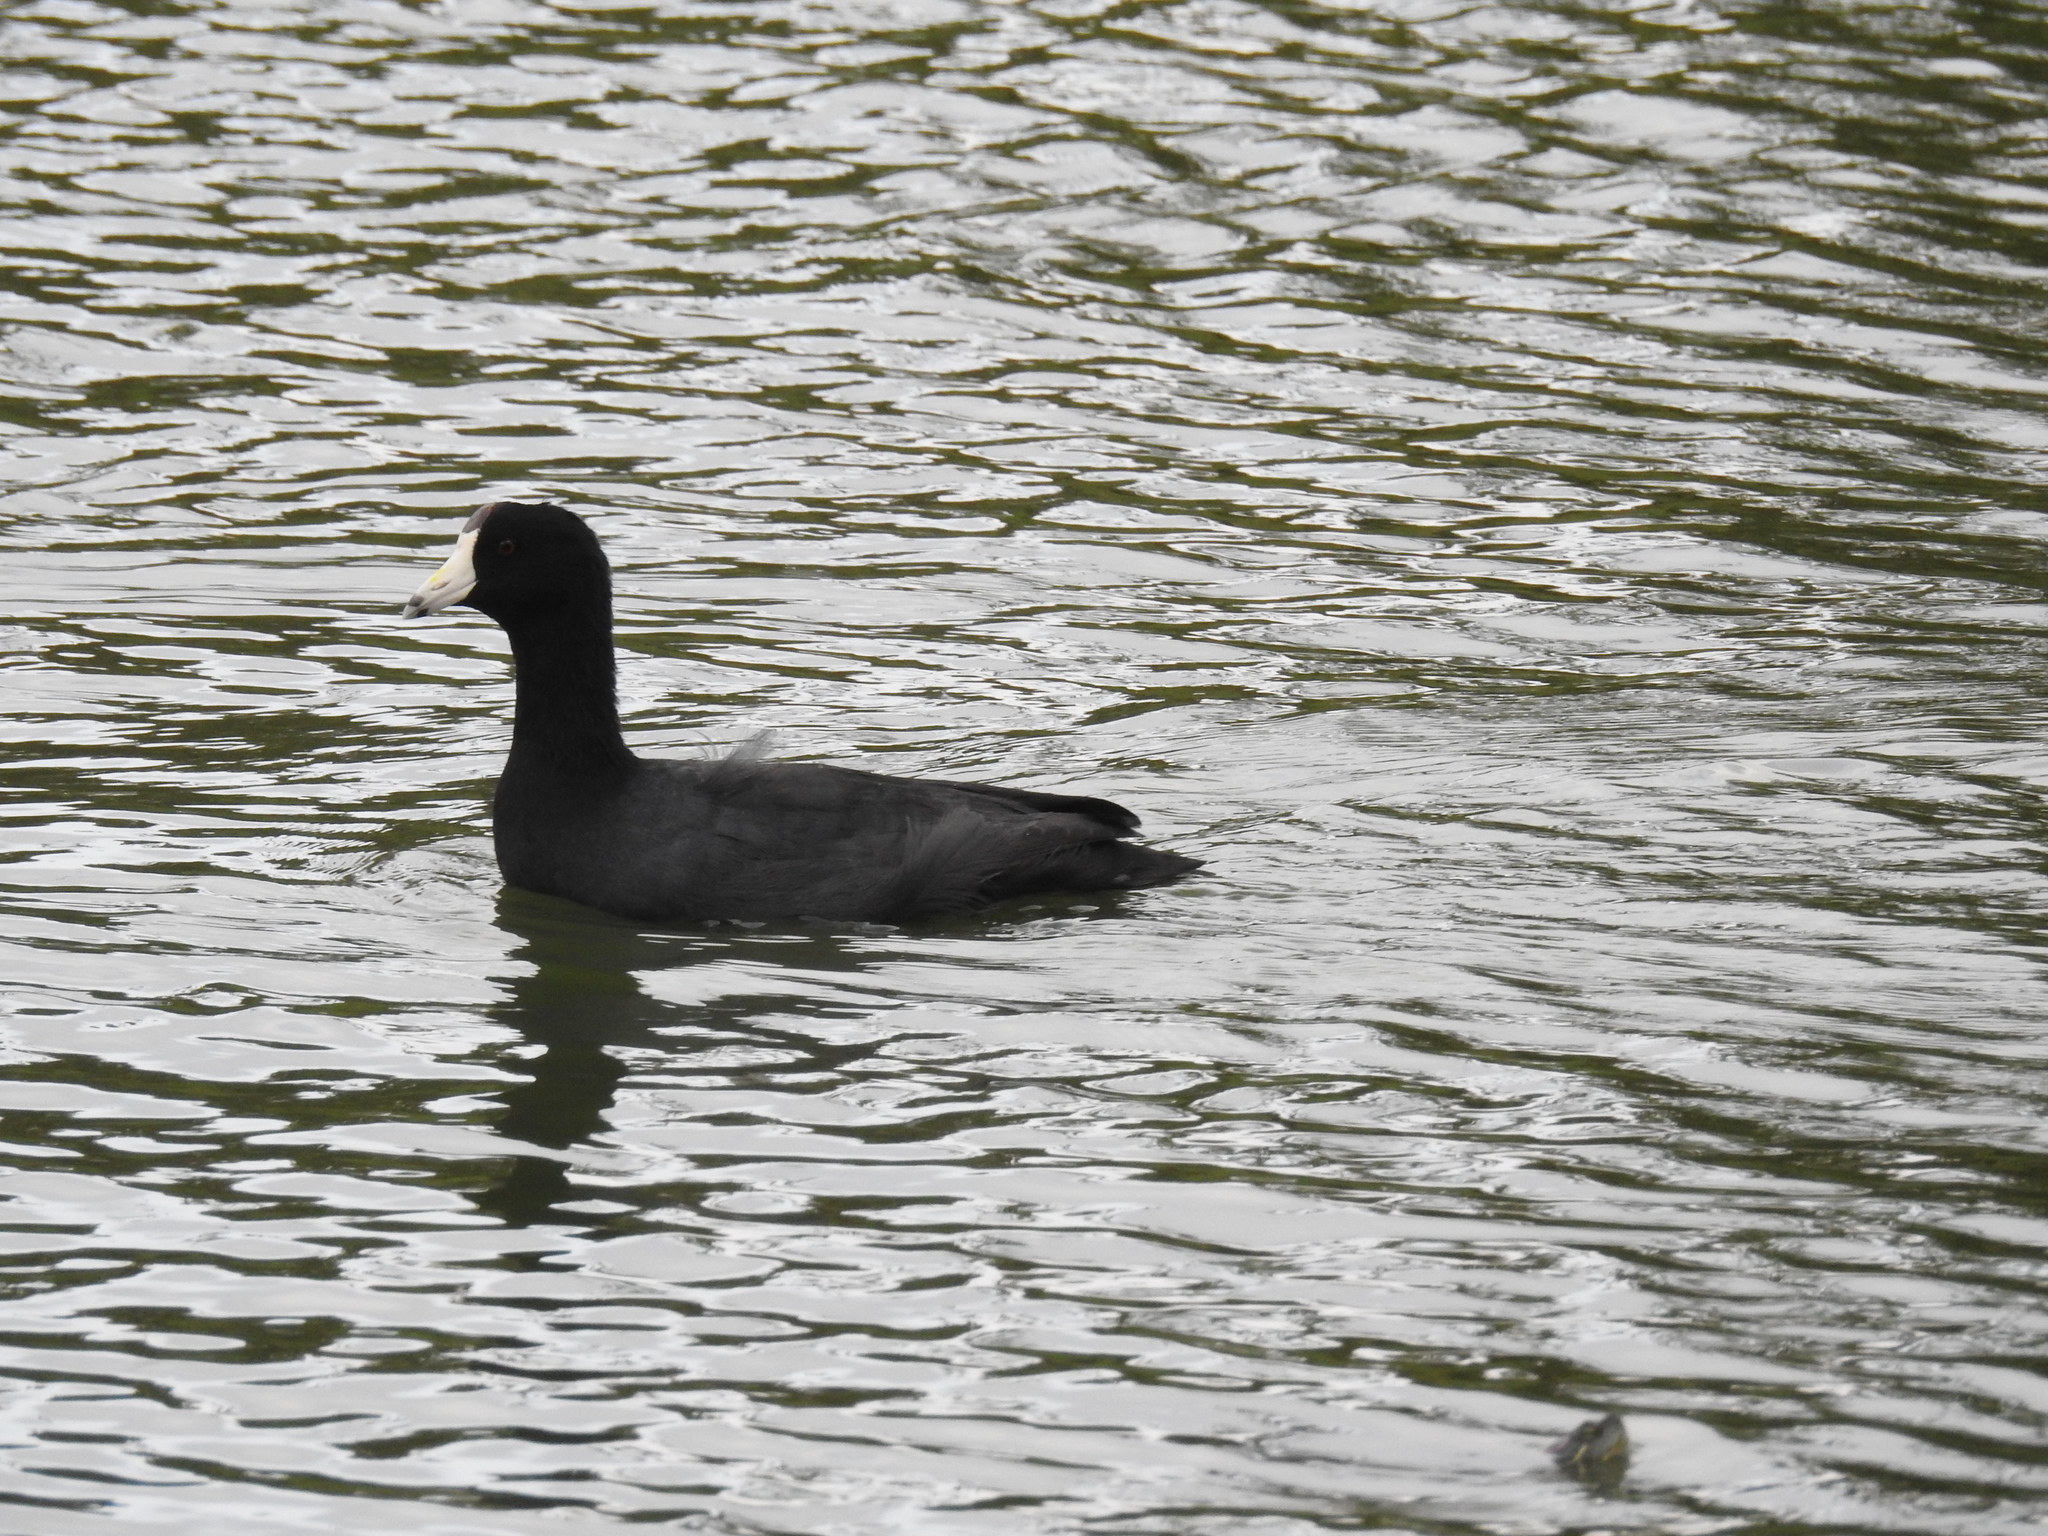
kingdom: Animalia
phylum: Chordata
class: Aves
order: Gruiformes
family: Rallidae
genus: Fulica
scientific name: Fulica americana
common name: American coot
